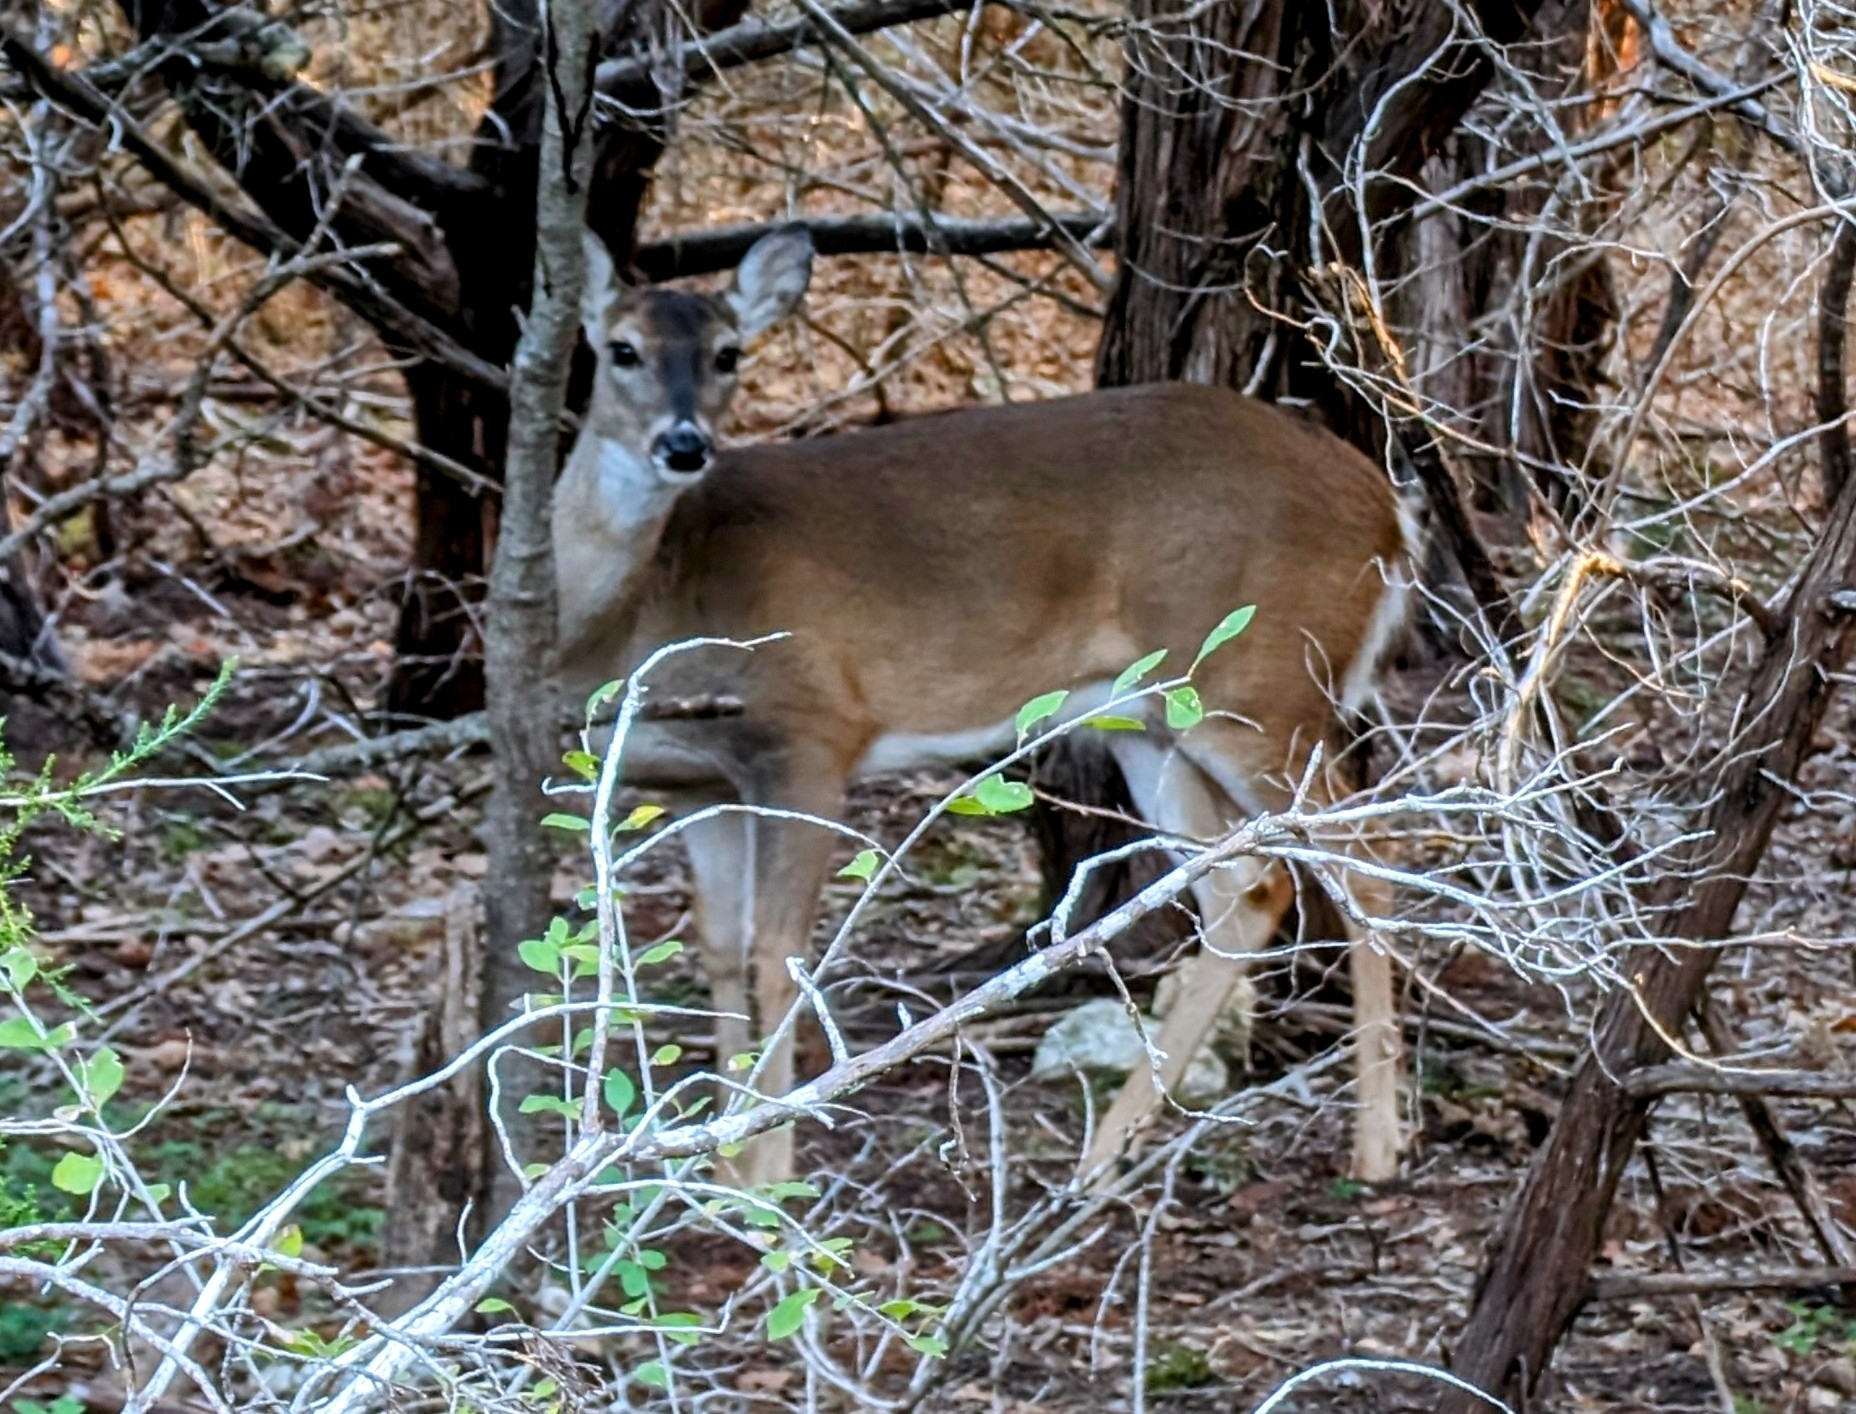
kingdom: Animalia
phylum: Chordata
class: Mammalia
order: Artiodactyla
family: Cervidae
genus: Odocoileus
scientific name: Odocoileus virginianus
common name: White-tailed deer
